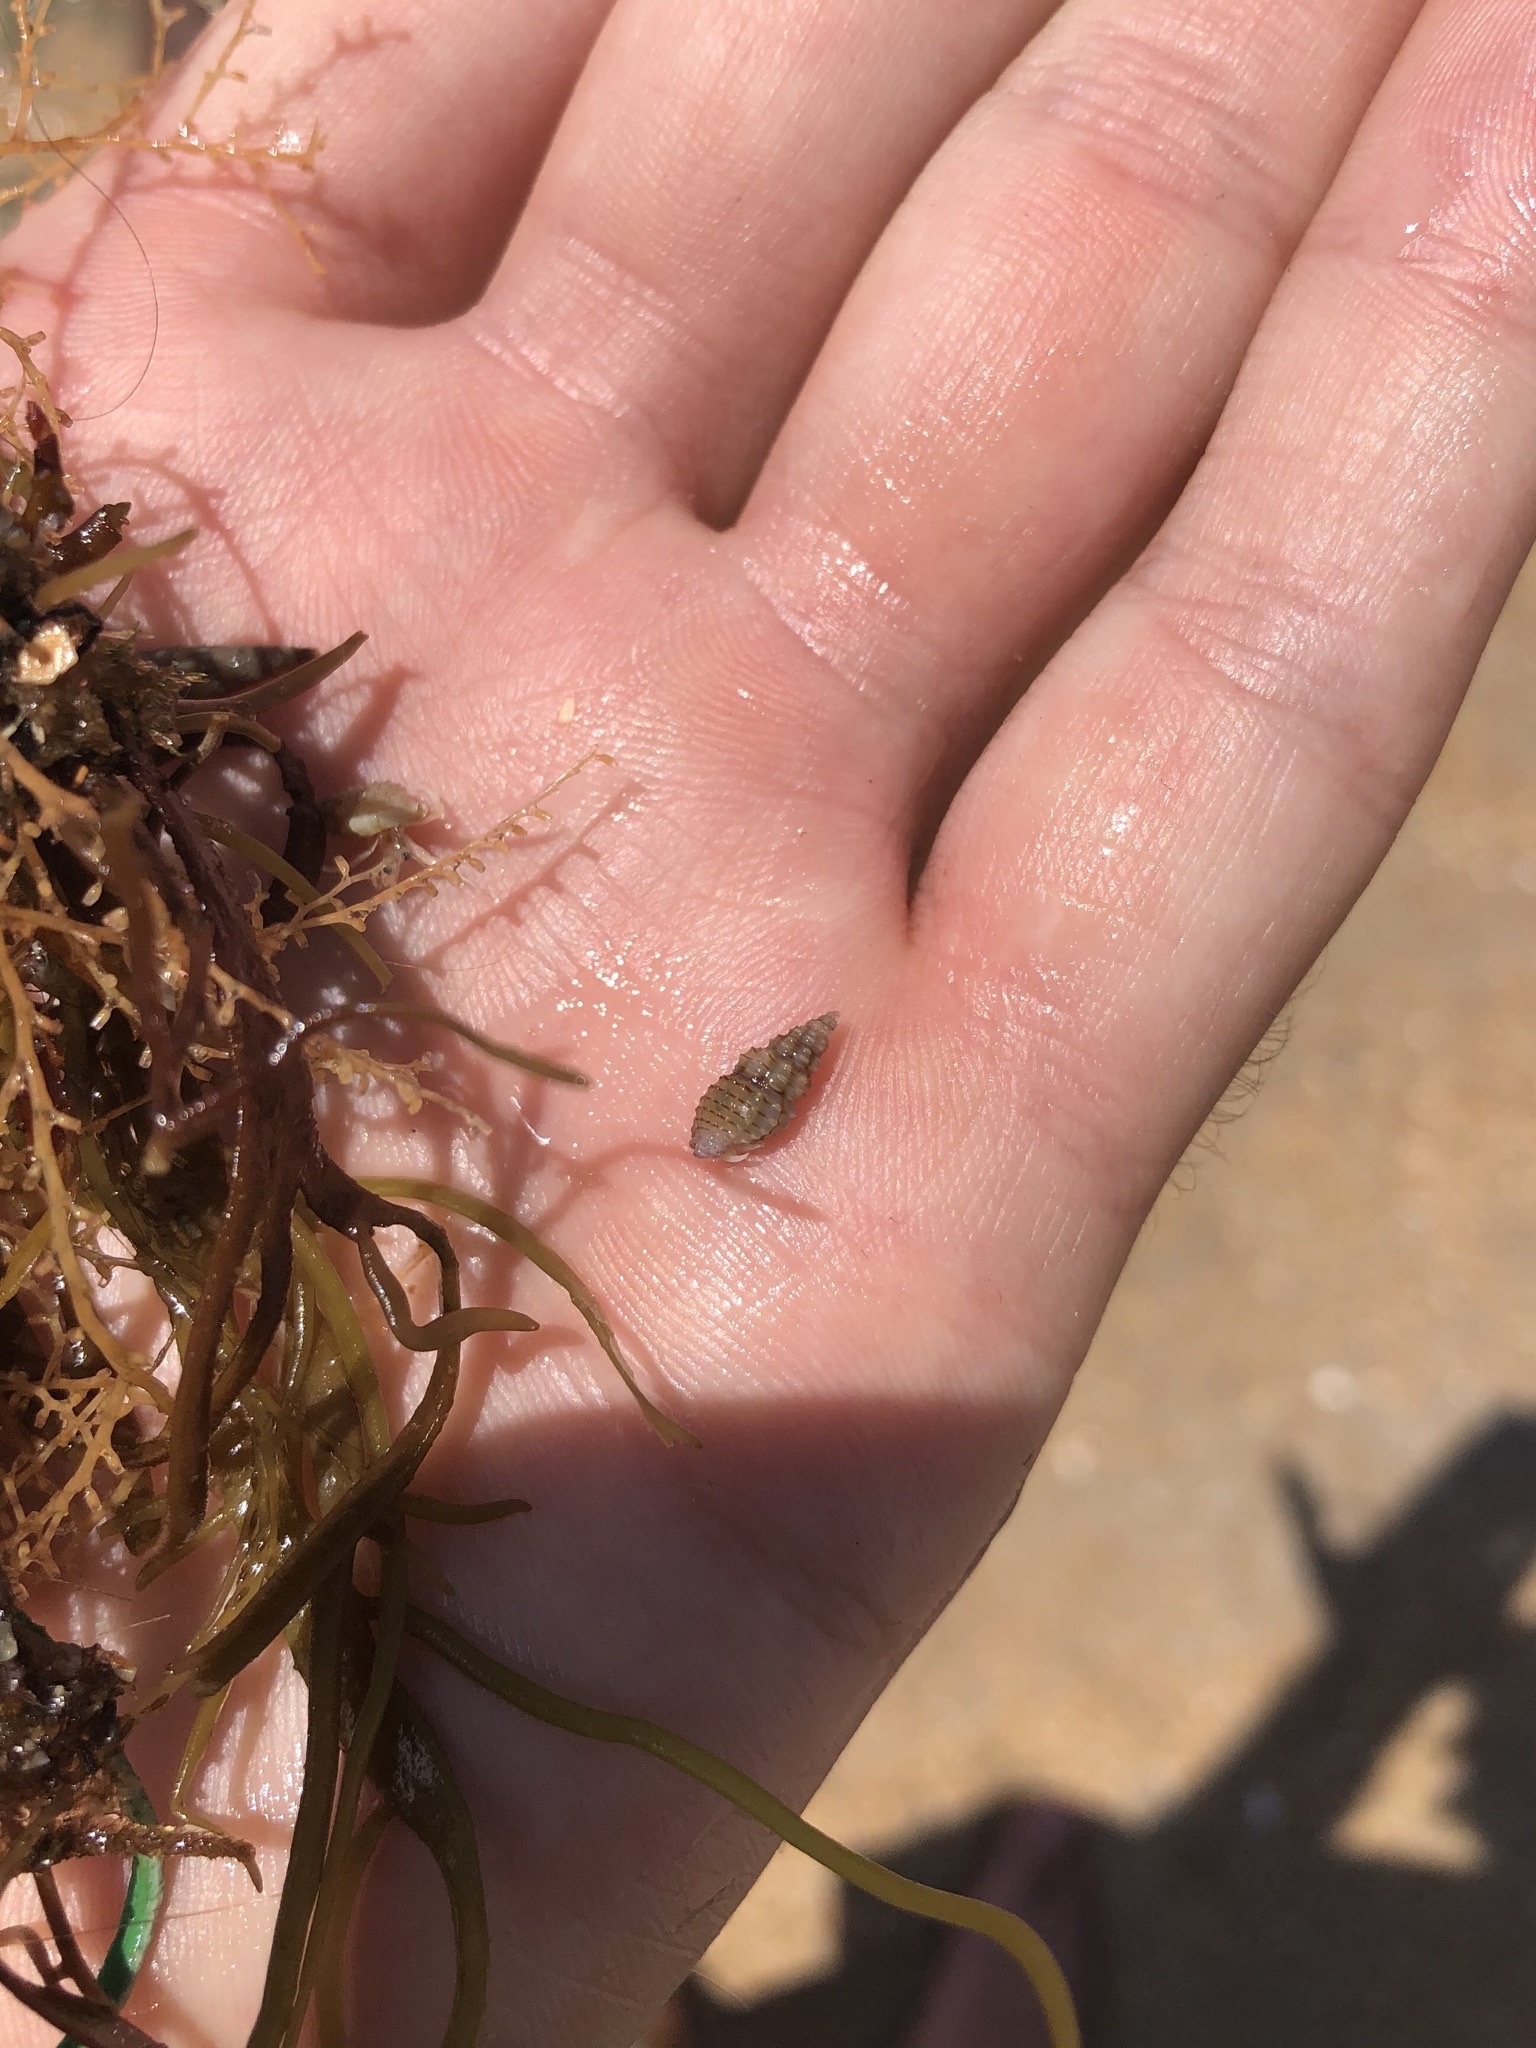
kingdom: Animalia
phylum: Mollusca
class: Gastropoda
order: Neogastropoda
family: Nassariidae
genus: Nassarius
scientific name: Nassarius acutus
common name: Sharp nassa
